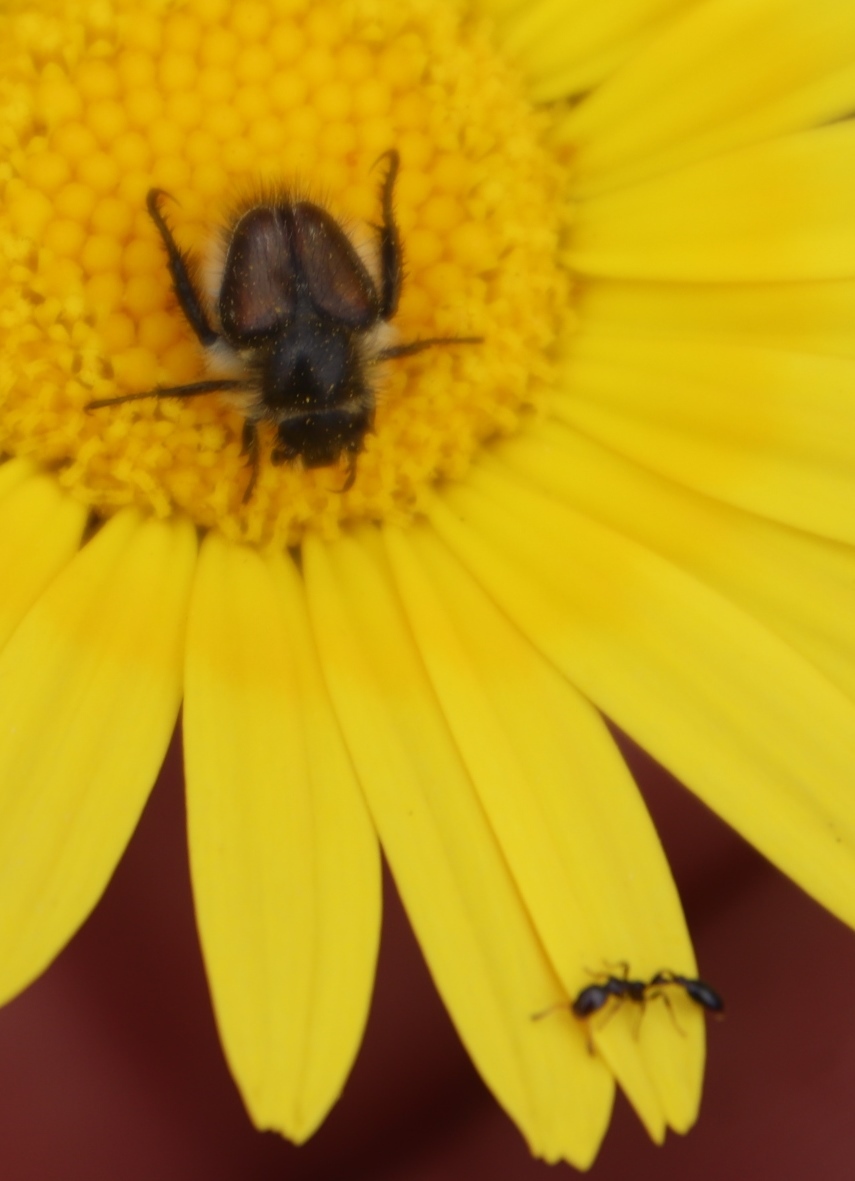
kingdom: Plantae
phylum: Tracheophyta
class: Magnoliopsida
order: Asterales
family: Asteraceae
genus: Euryops
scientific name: Euryops abrotanifolius
